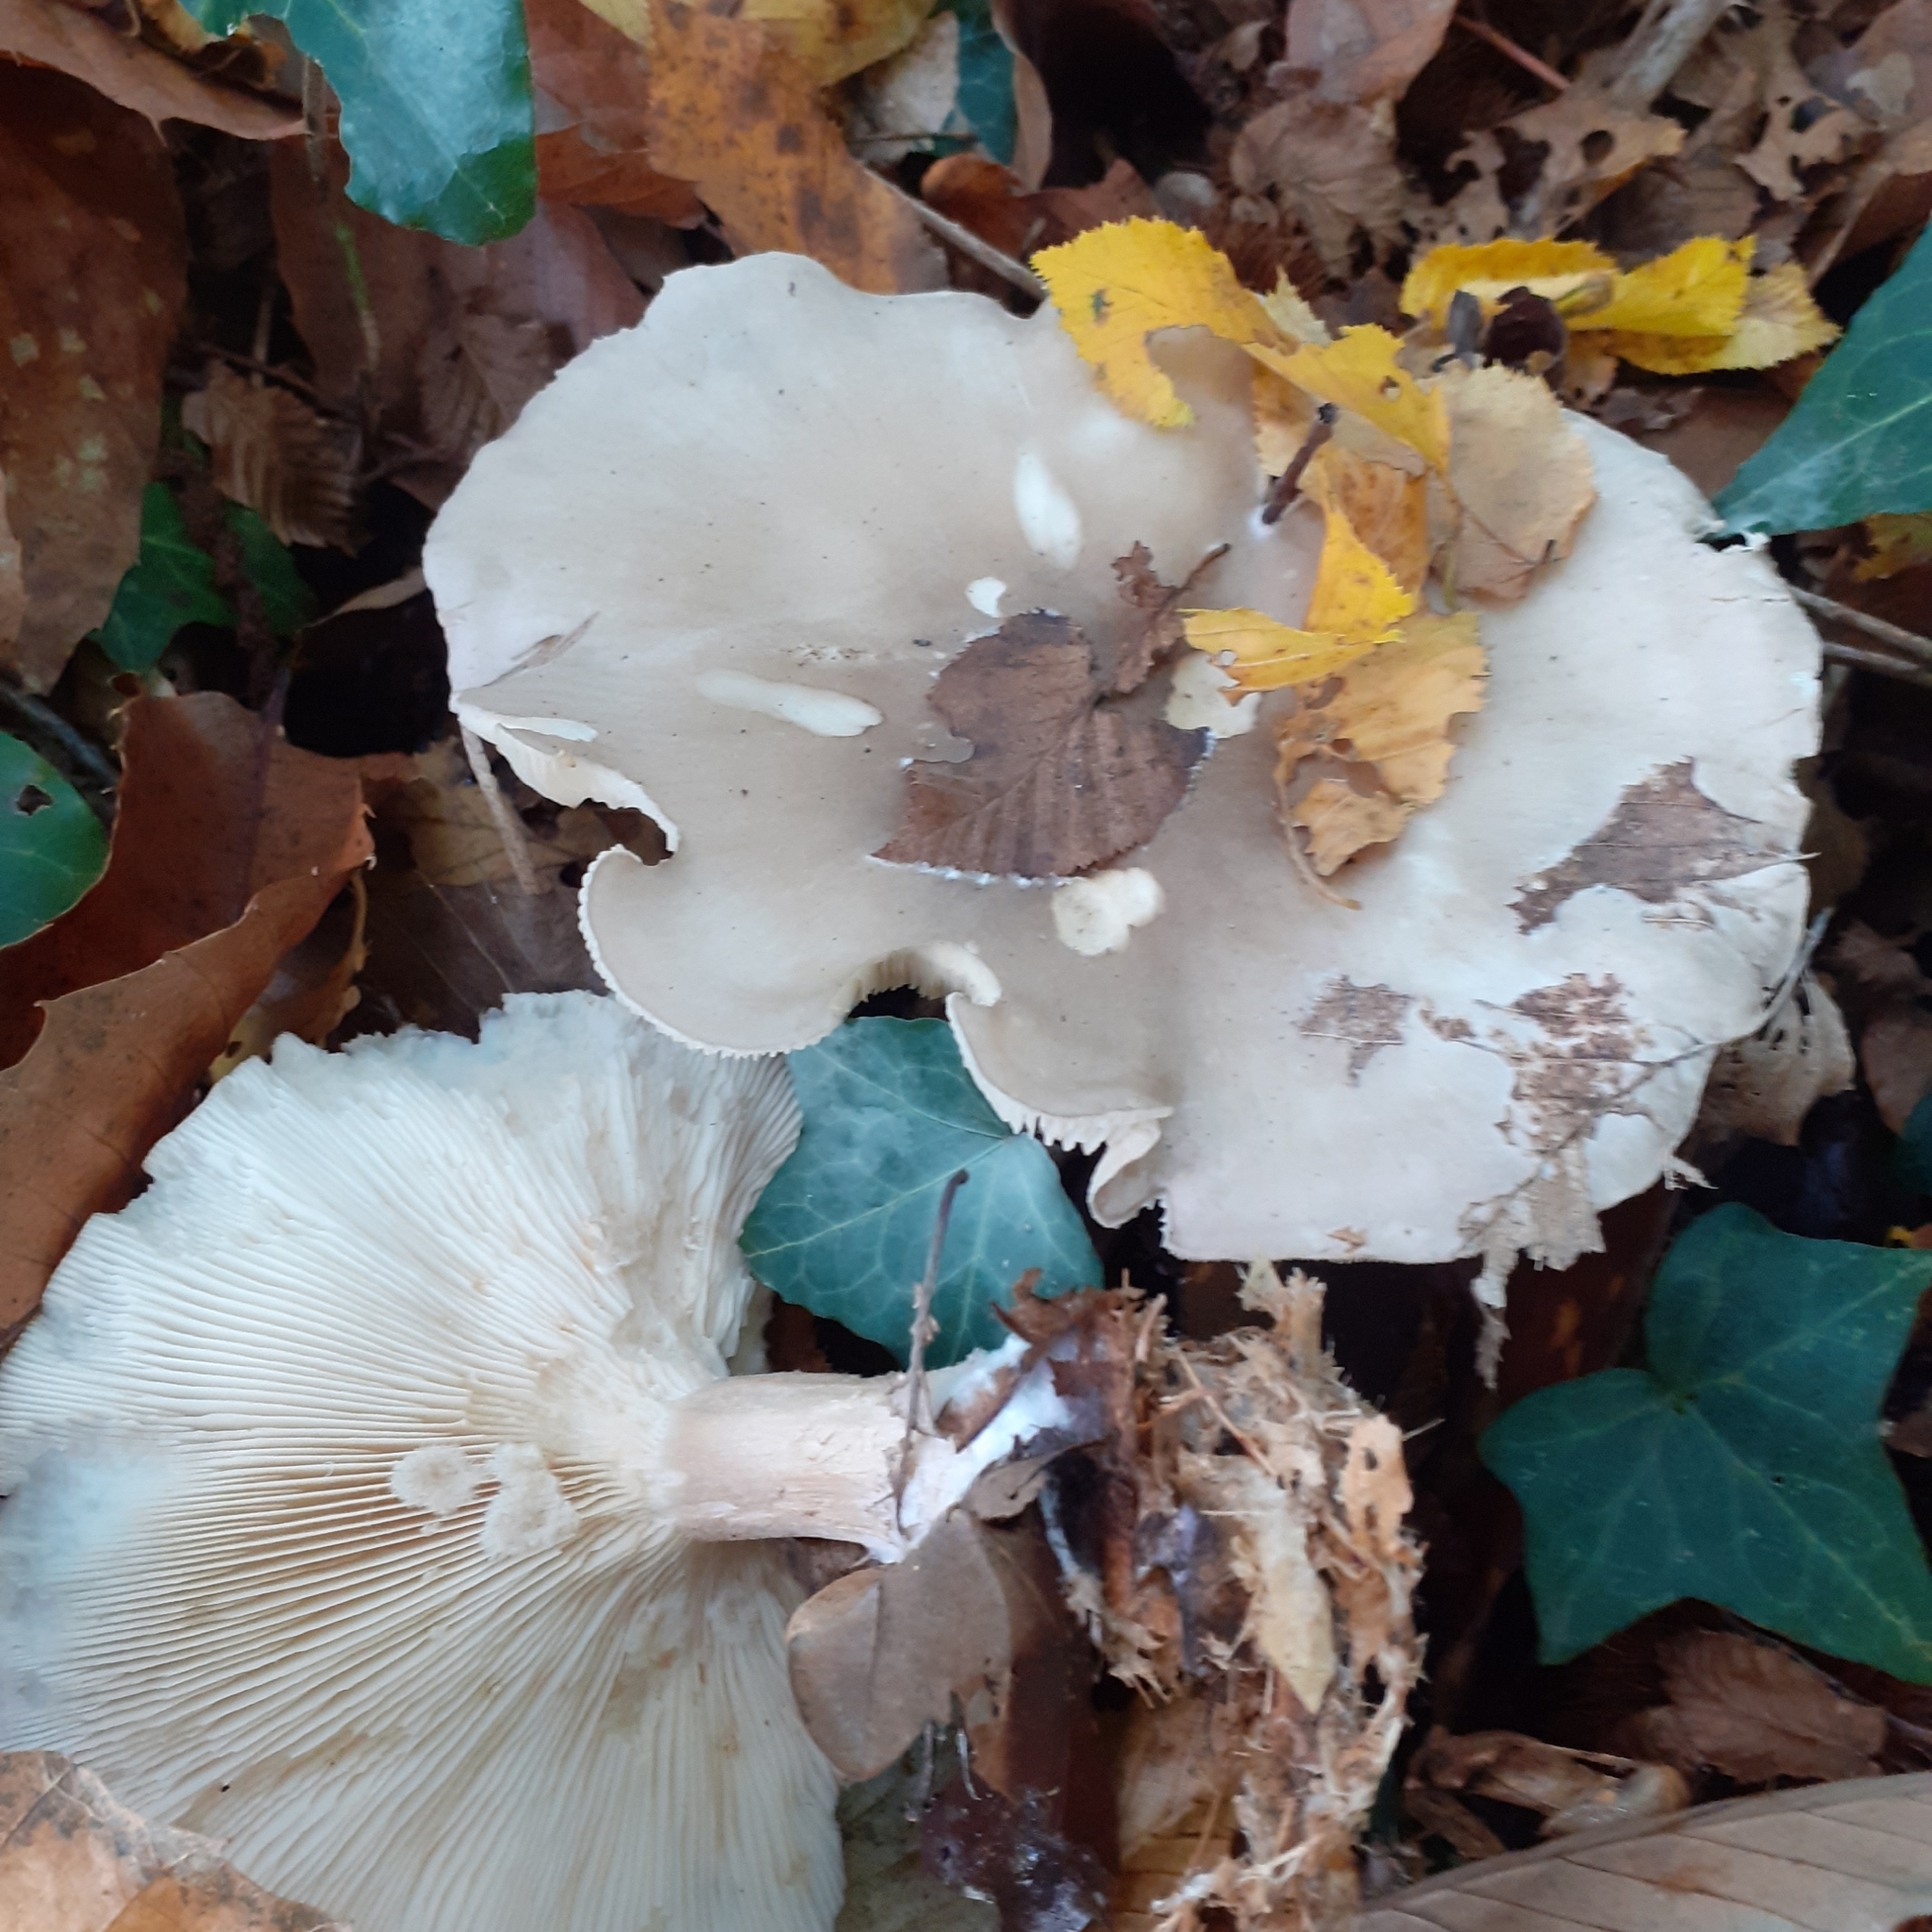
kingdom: Fungi
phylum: Basidiomycota
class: Agaricomycetes
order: Agaricales
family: Tricholomataceae
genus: Clitocybe
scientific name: Clitocybe nebularis
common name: Clouded agaric
